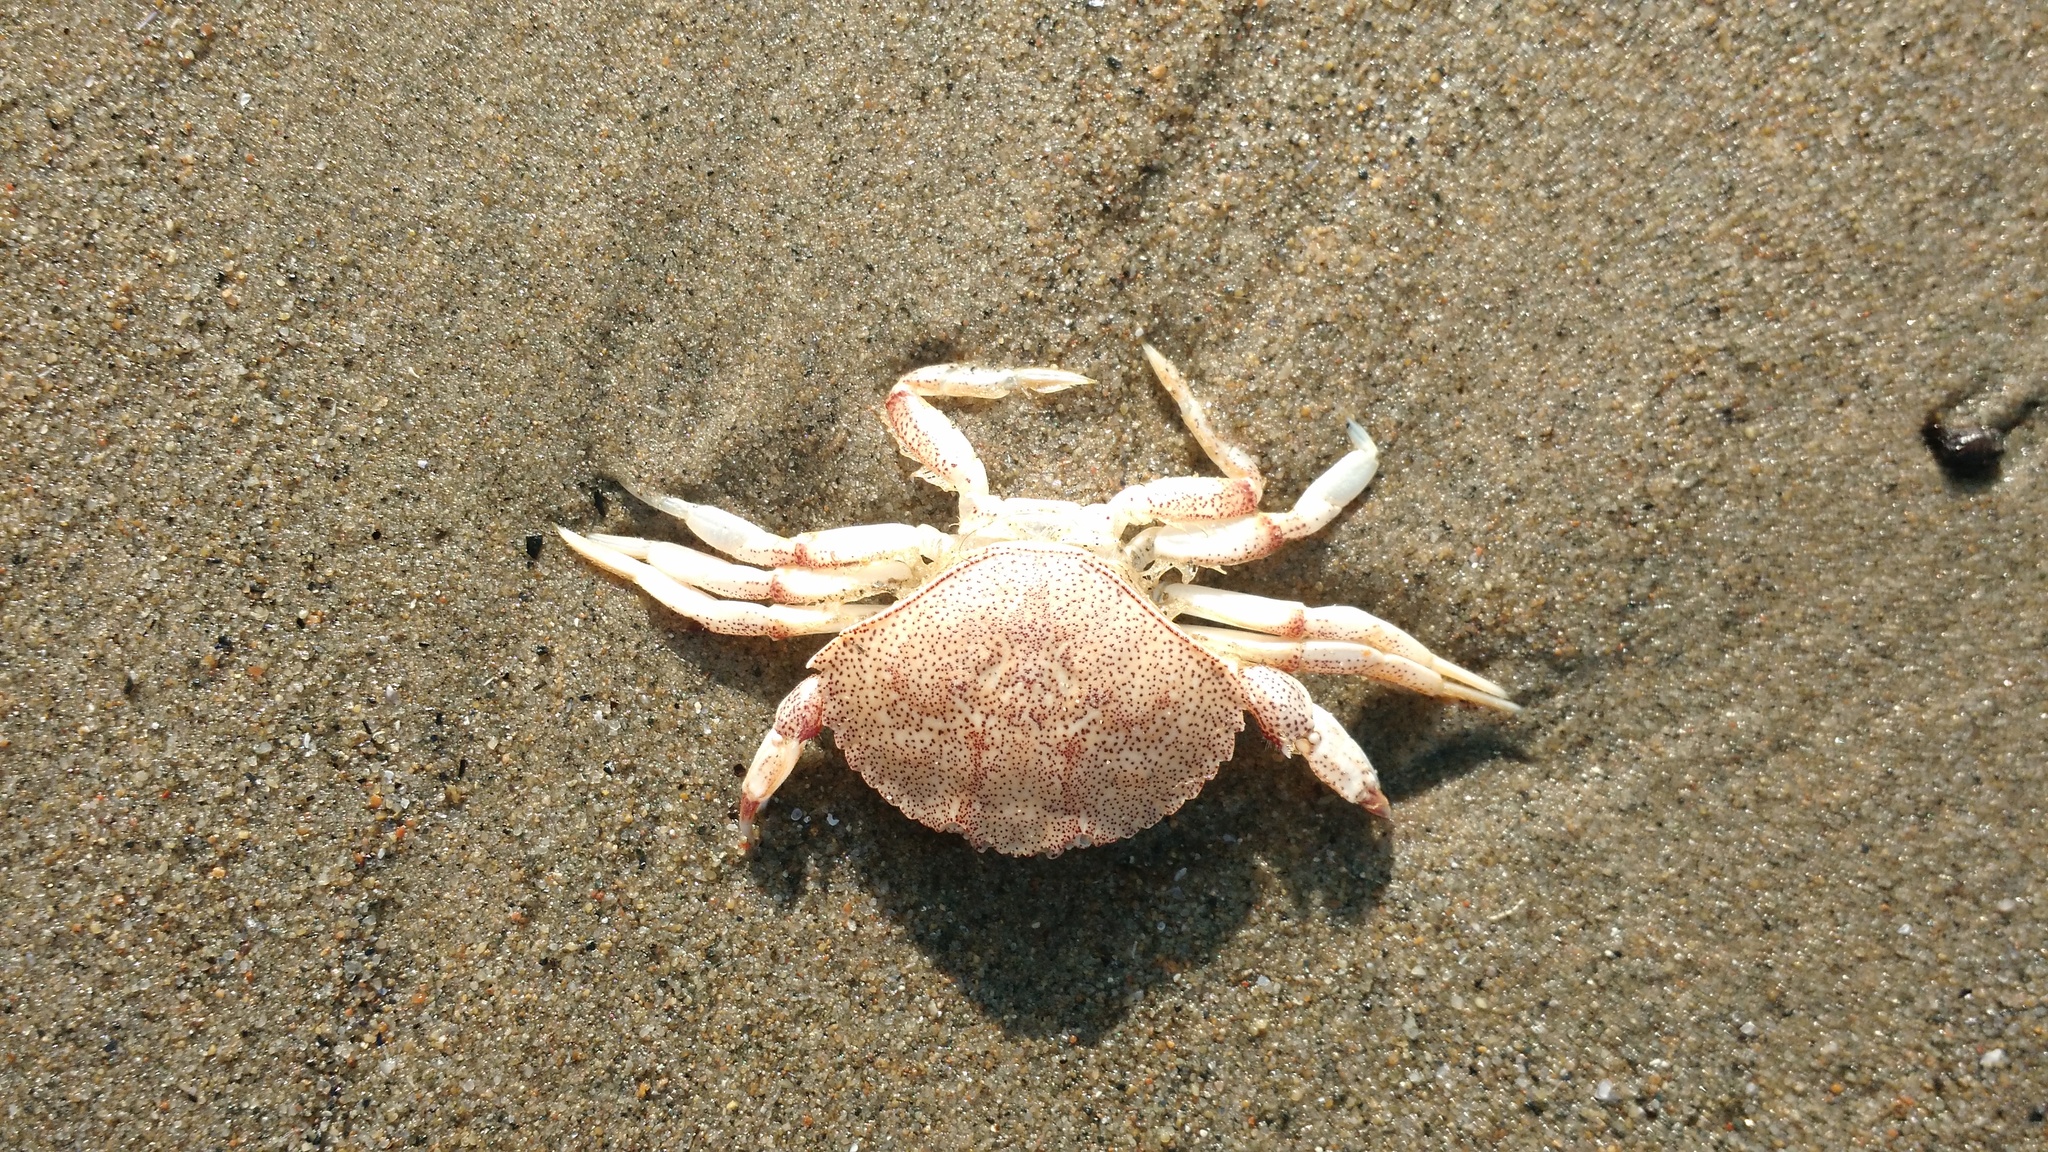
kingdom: Animalia
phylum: Arthropoda
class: Malacostraca
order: Decapoda
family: Cancridae
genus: Cancer
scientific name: Cancer irroratus
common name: Atlantic rock crab
